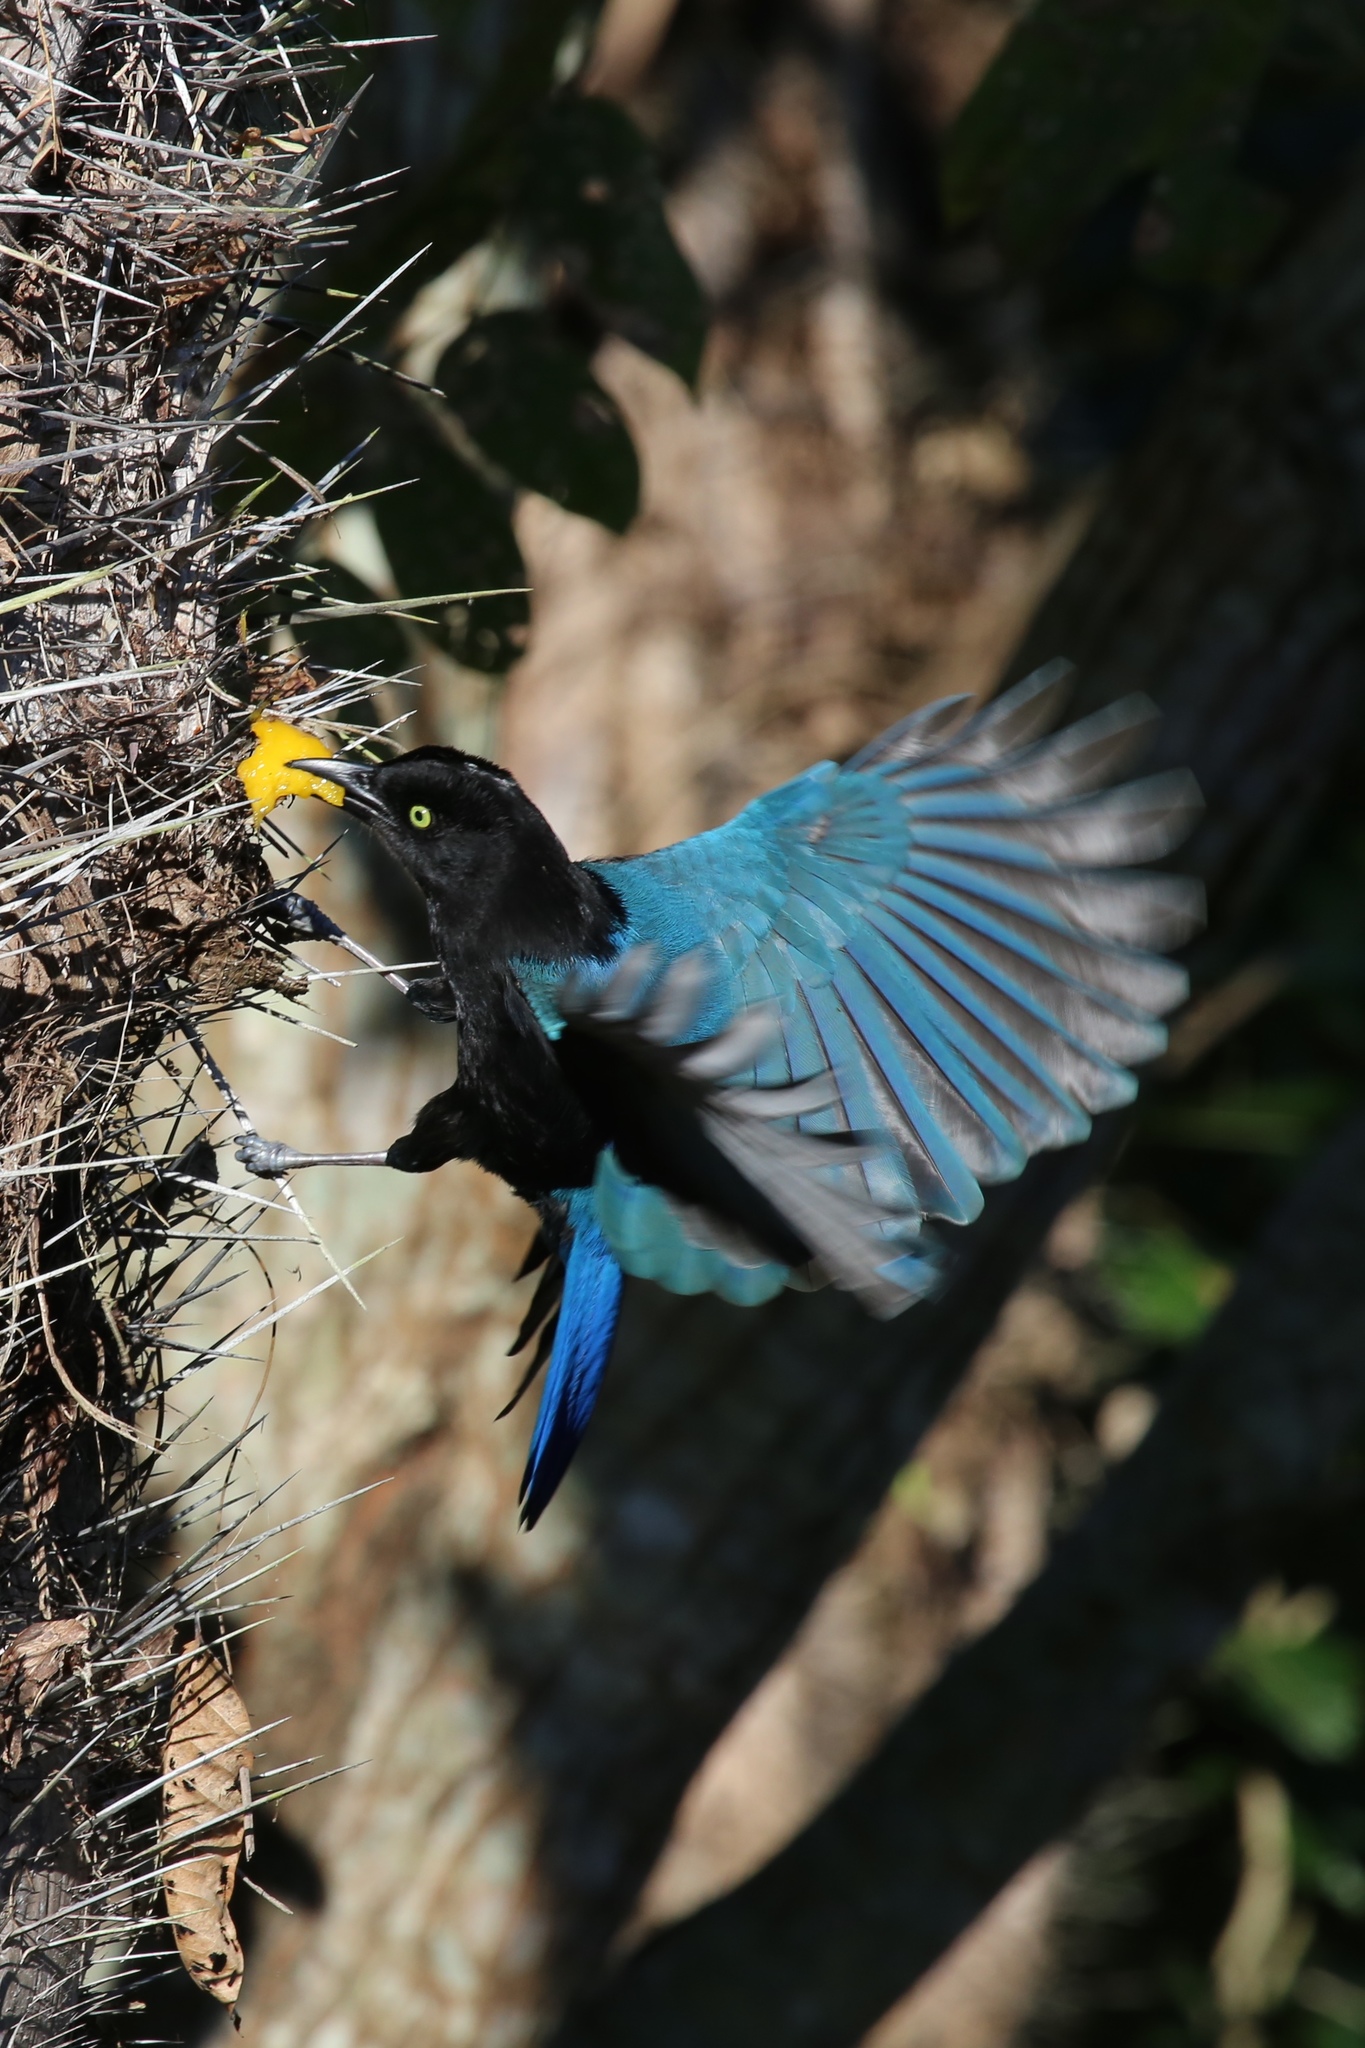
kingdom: Animalia
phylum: Chordata
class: Aves
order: Passeriformes
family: Corvidae
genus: Cyanocorax
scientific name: Cyanocorax sanblasianus
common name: San blas jay
